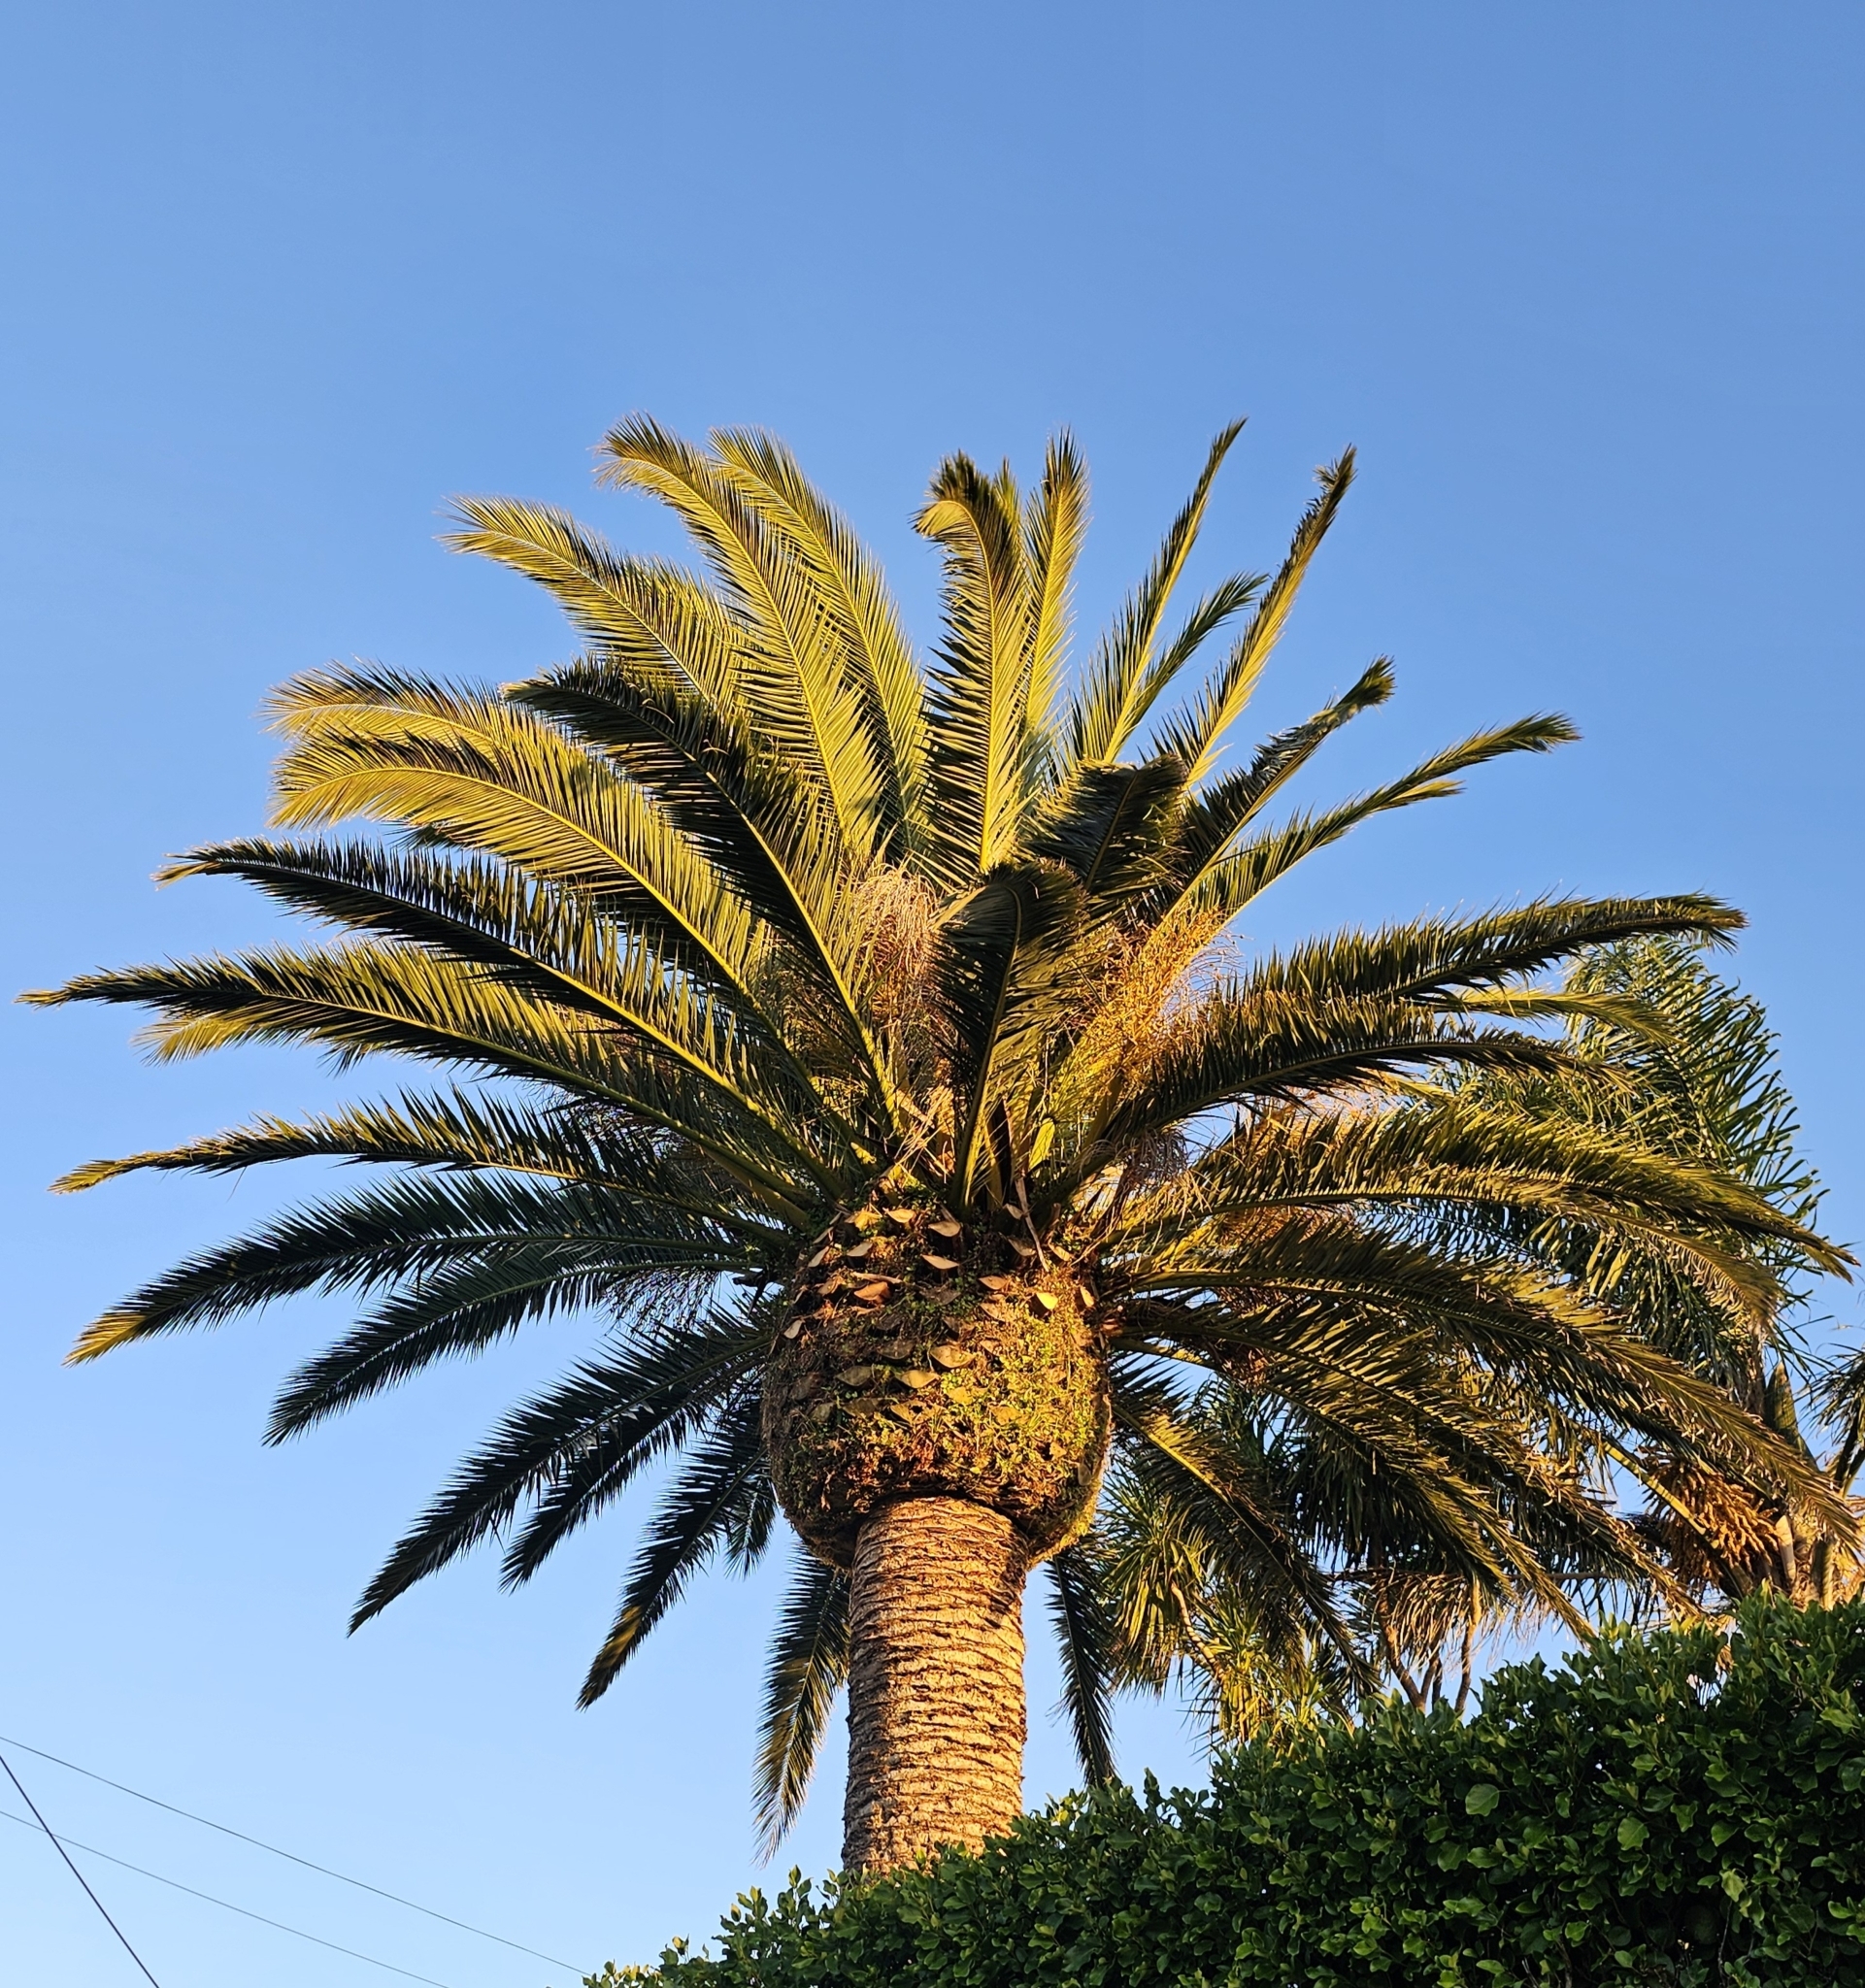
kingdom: Plantae
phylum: Tracheophyta
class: Liliopsida
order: Arecales
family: Arecaceae
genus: Phoenix
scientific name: Phoenix canariensis
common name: Canary island date palm
